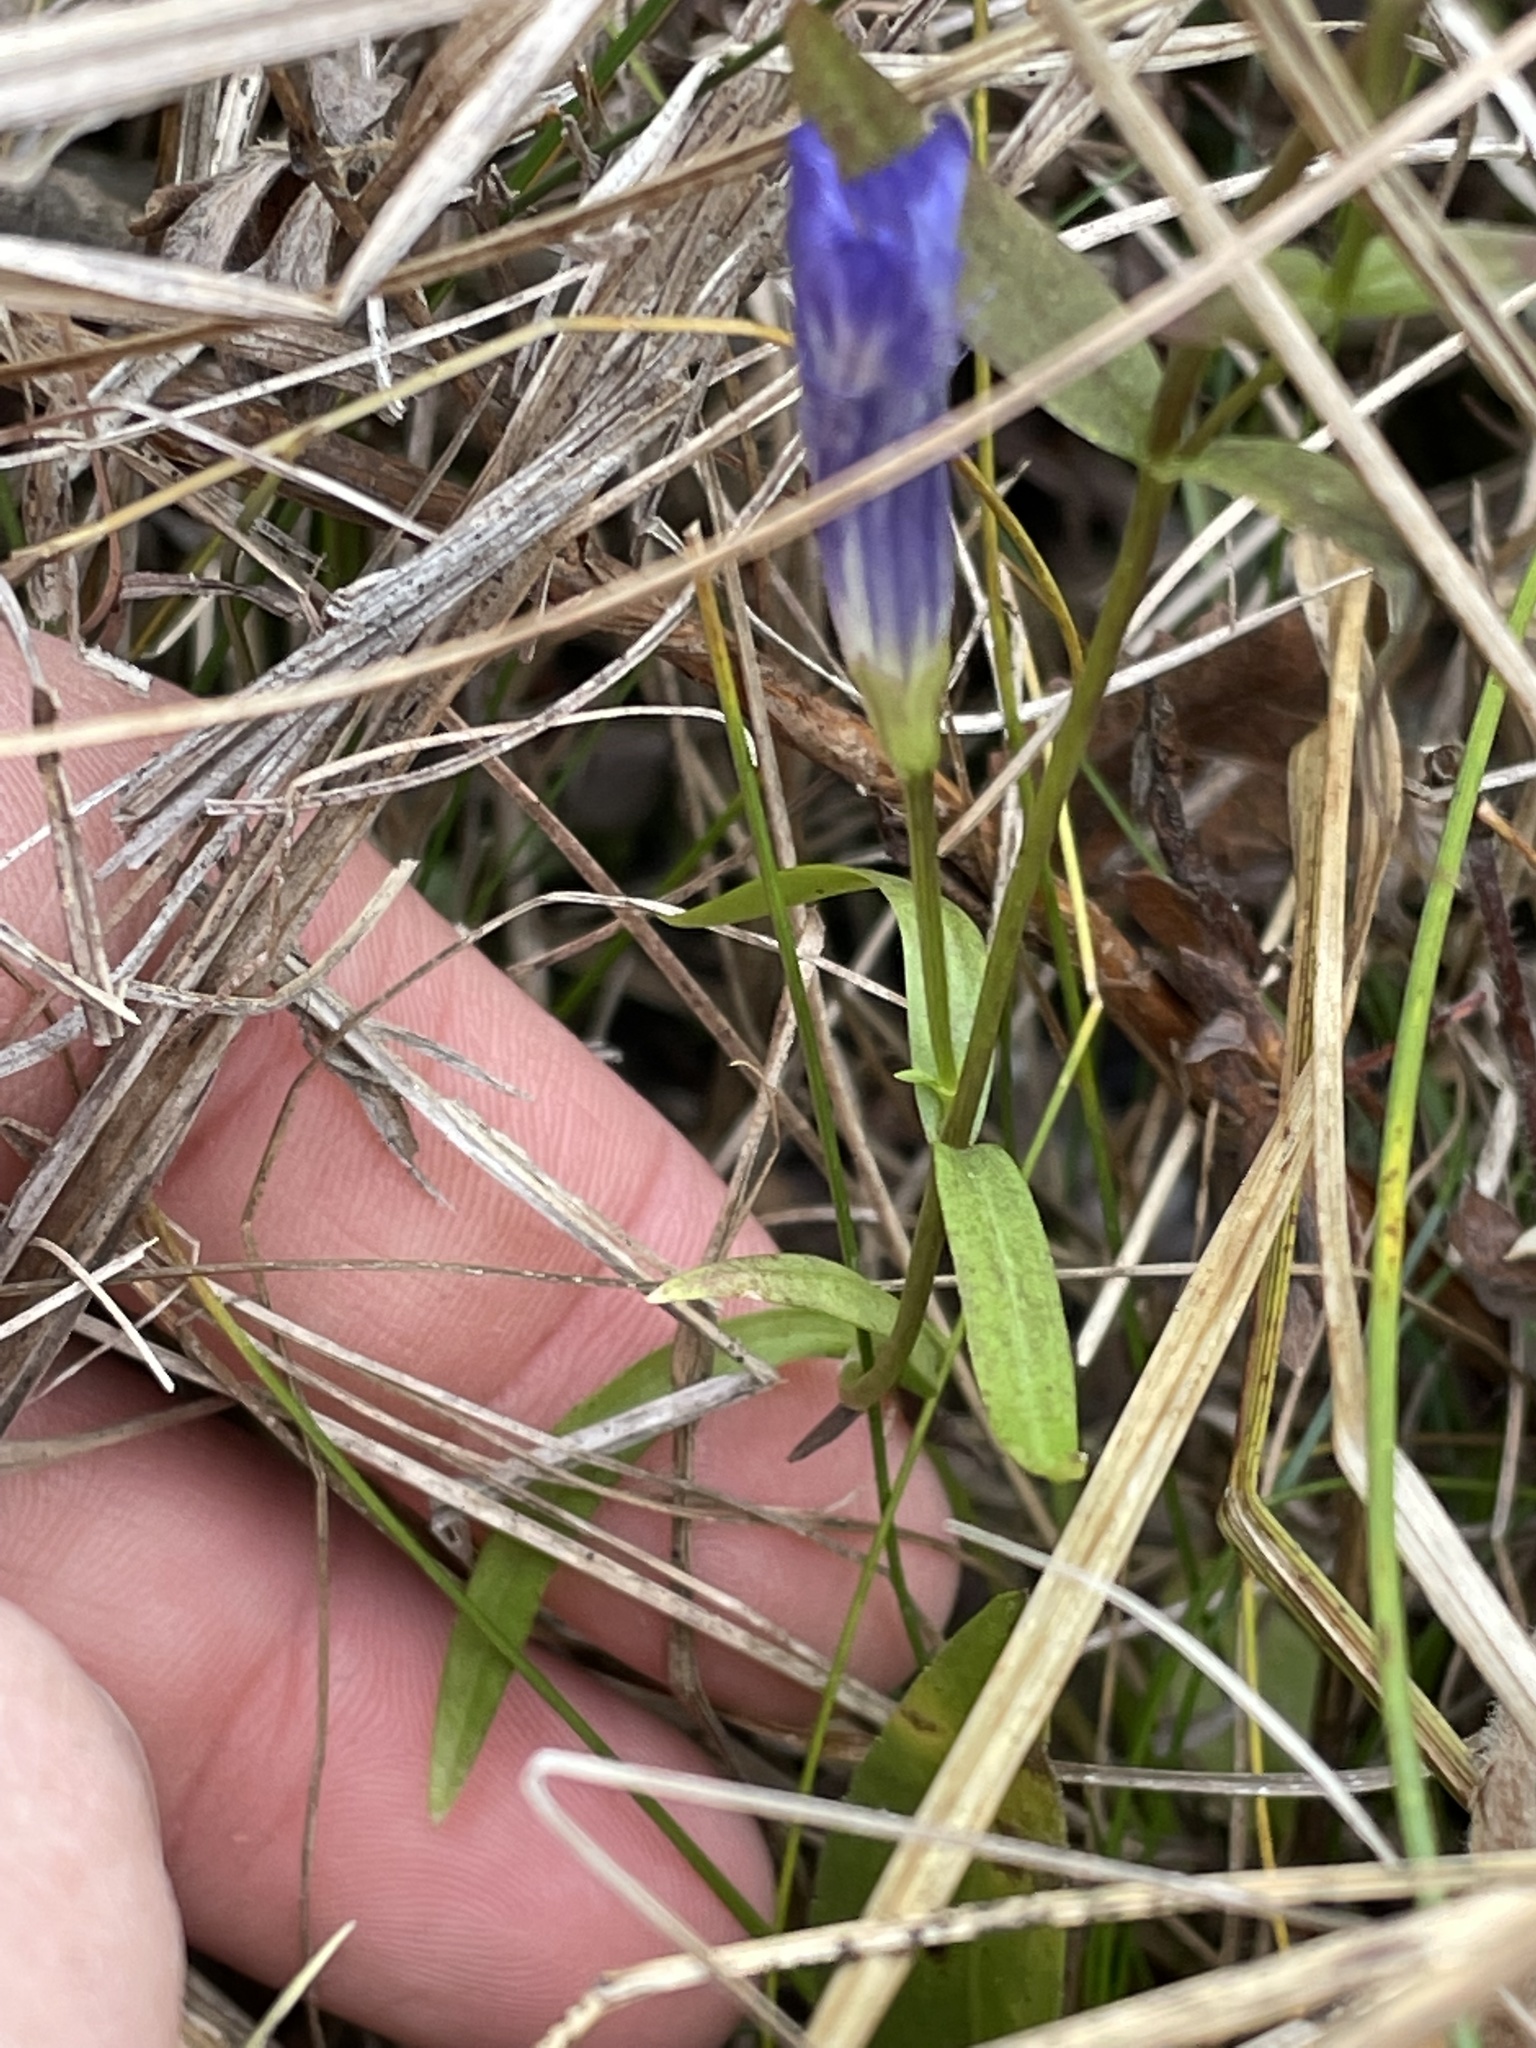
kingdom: Plantae
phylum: Tracheophyta
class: Magnoliopsida
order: Gentianales
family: Gentianaceae
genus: Gentianopsis
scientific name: Gentianopsis virgata
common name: Lesser fringed-gentian
